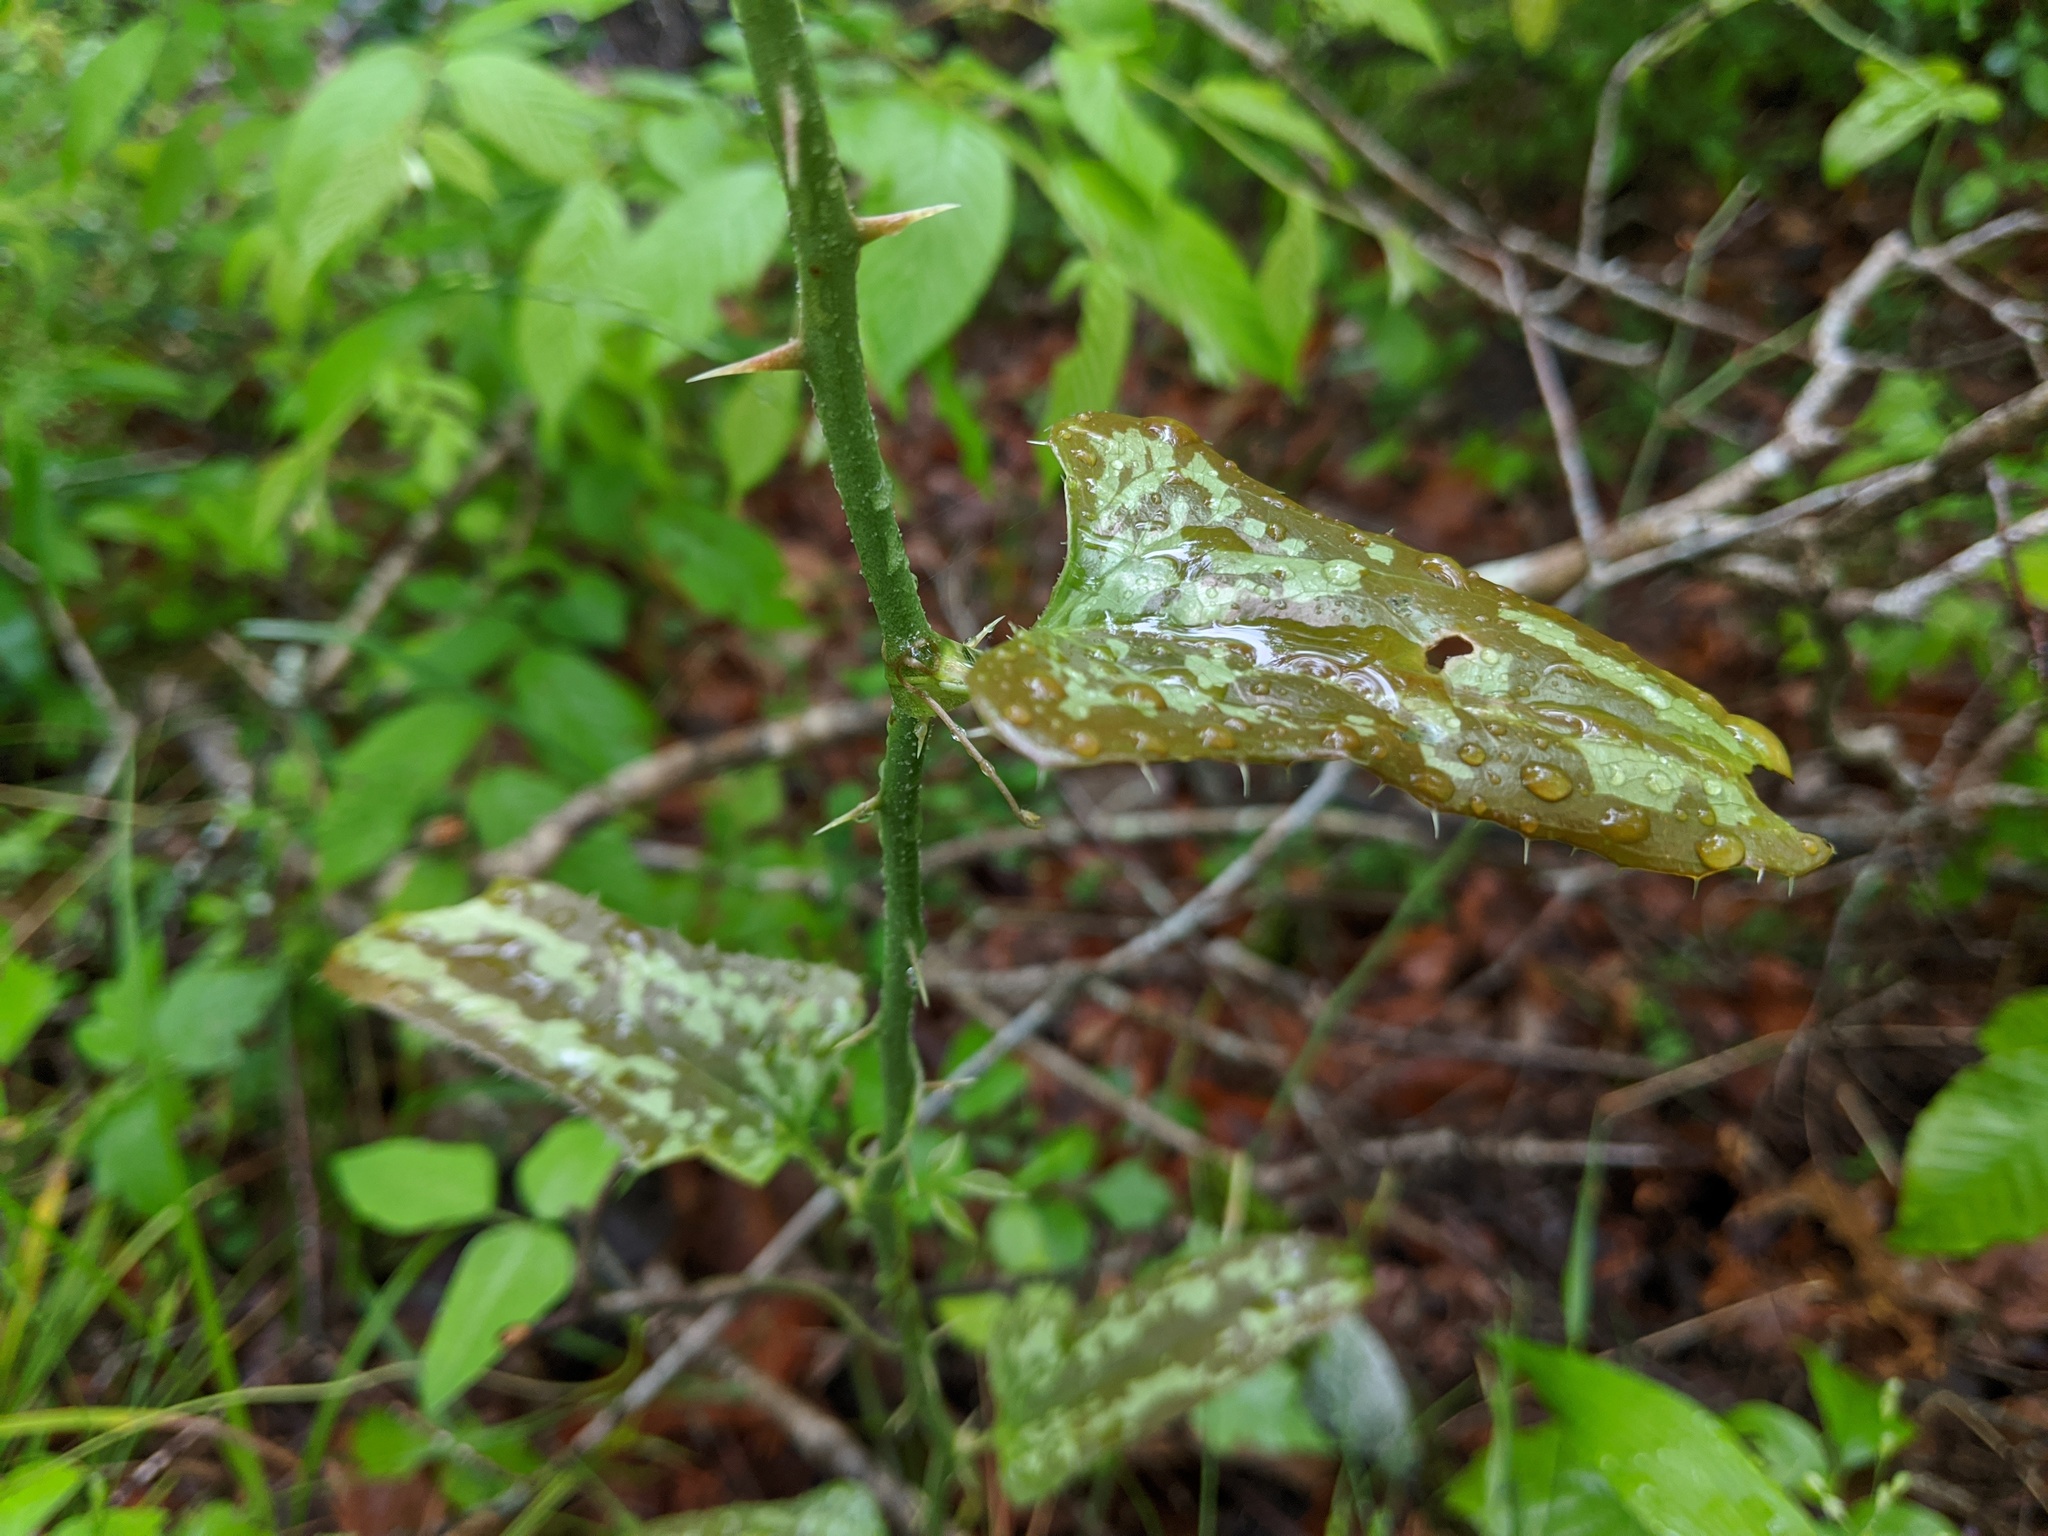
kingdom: Plantae
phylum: Tracheophyta
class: Liliopsida
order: Liliales
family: Smilacaceae
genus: Smilax
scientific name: Smilax bona-nox
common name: Catbrier
